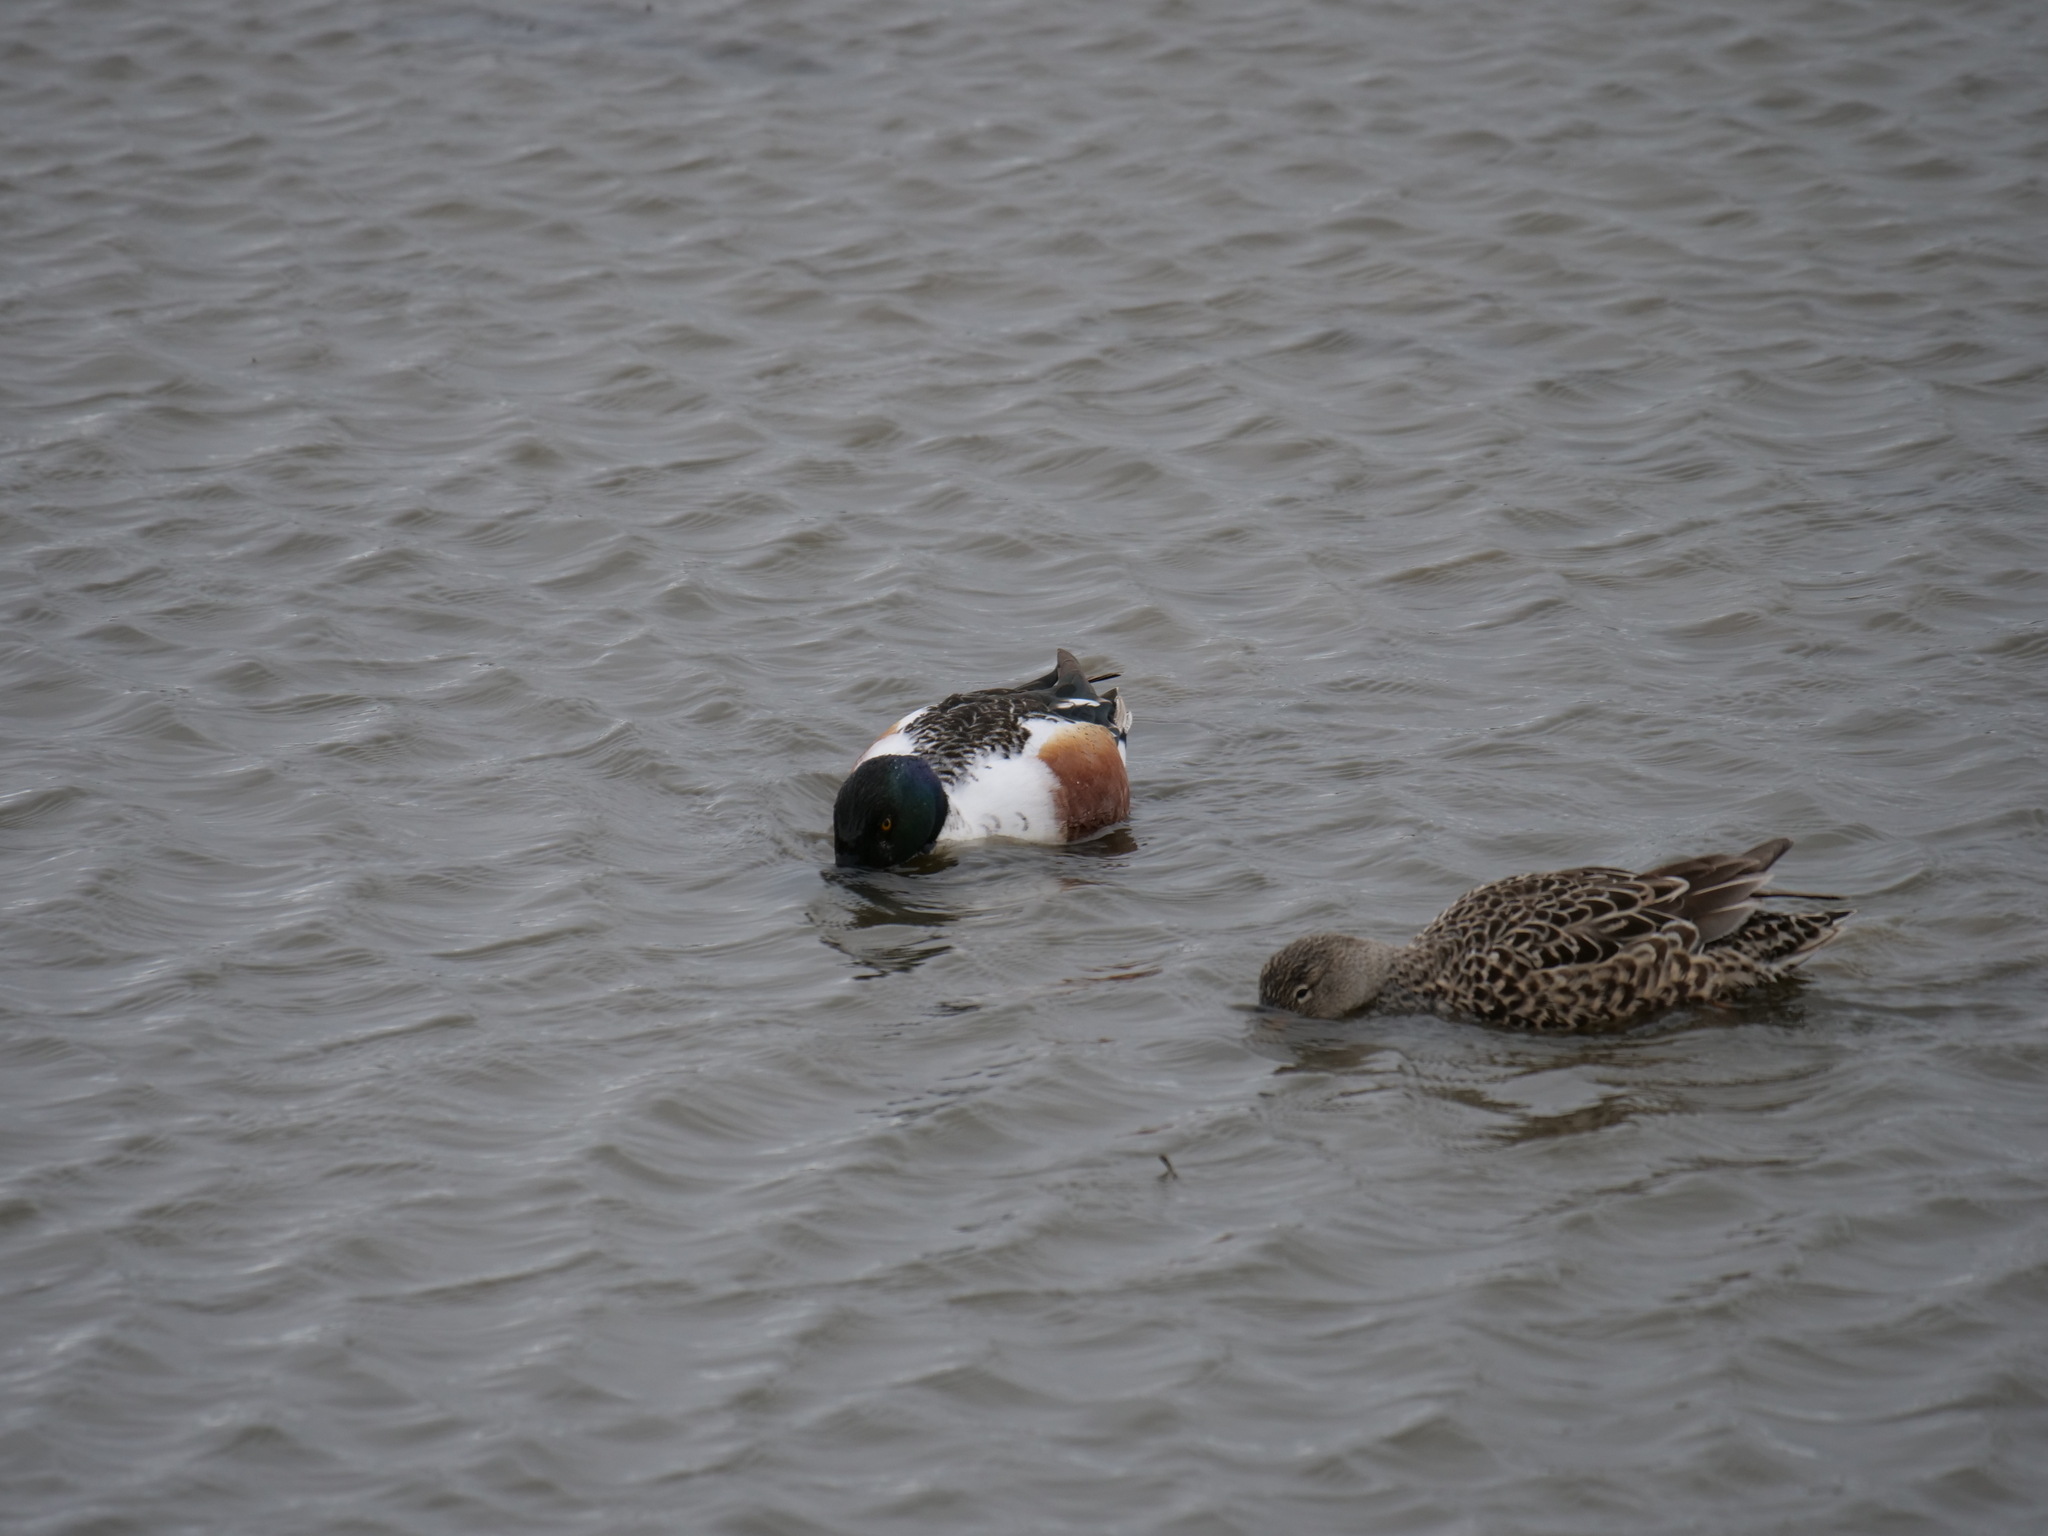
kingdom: Animalia
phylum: Chordata
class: Aves
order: Anseriformes
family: Anatidae
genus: Spatula
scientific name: Spatula clypeata
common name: Northern shoveler
